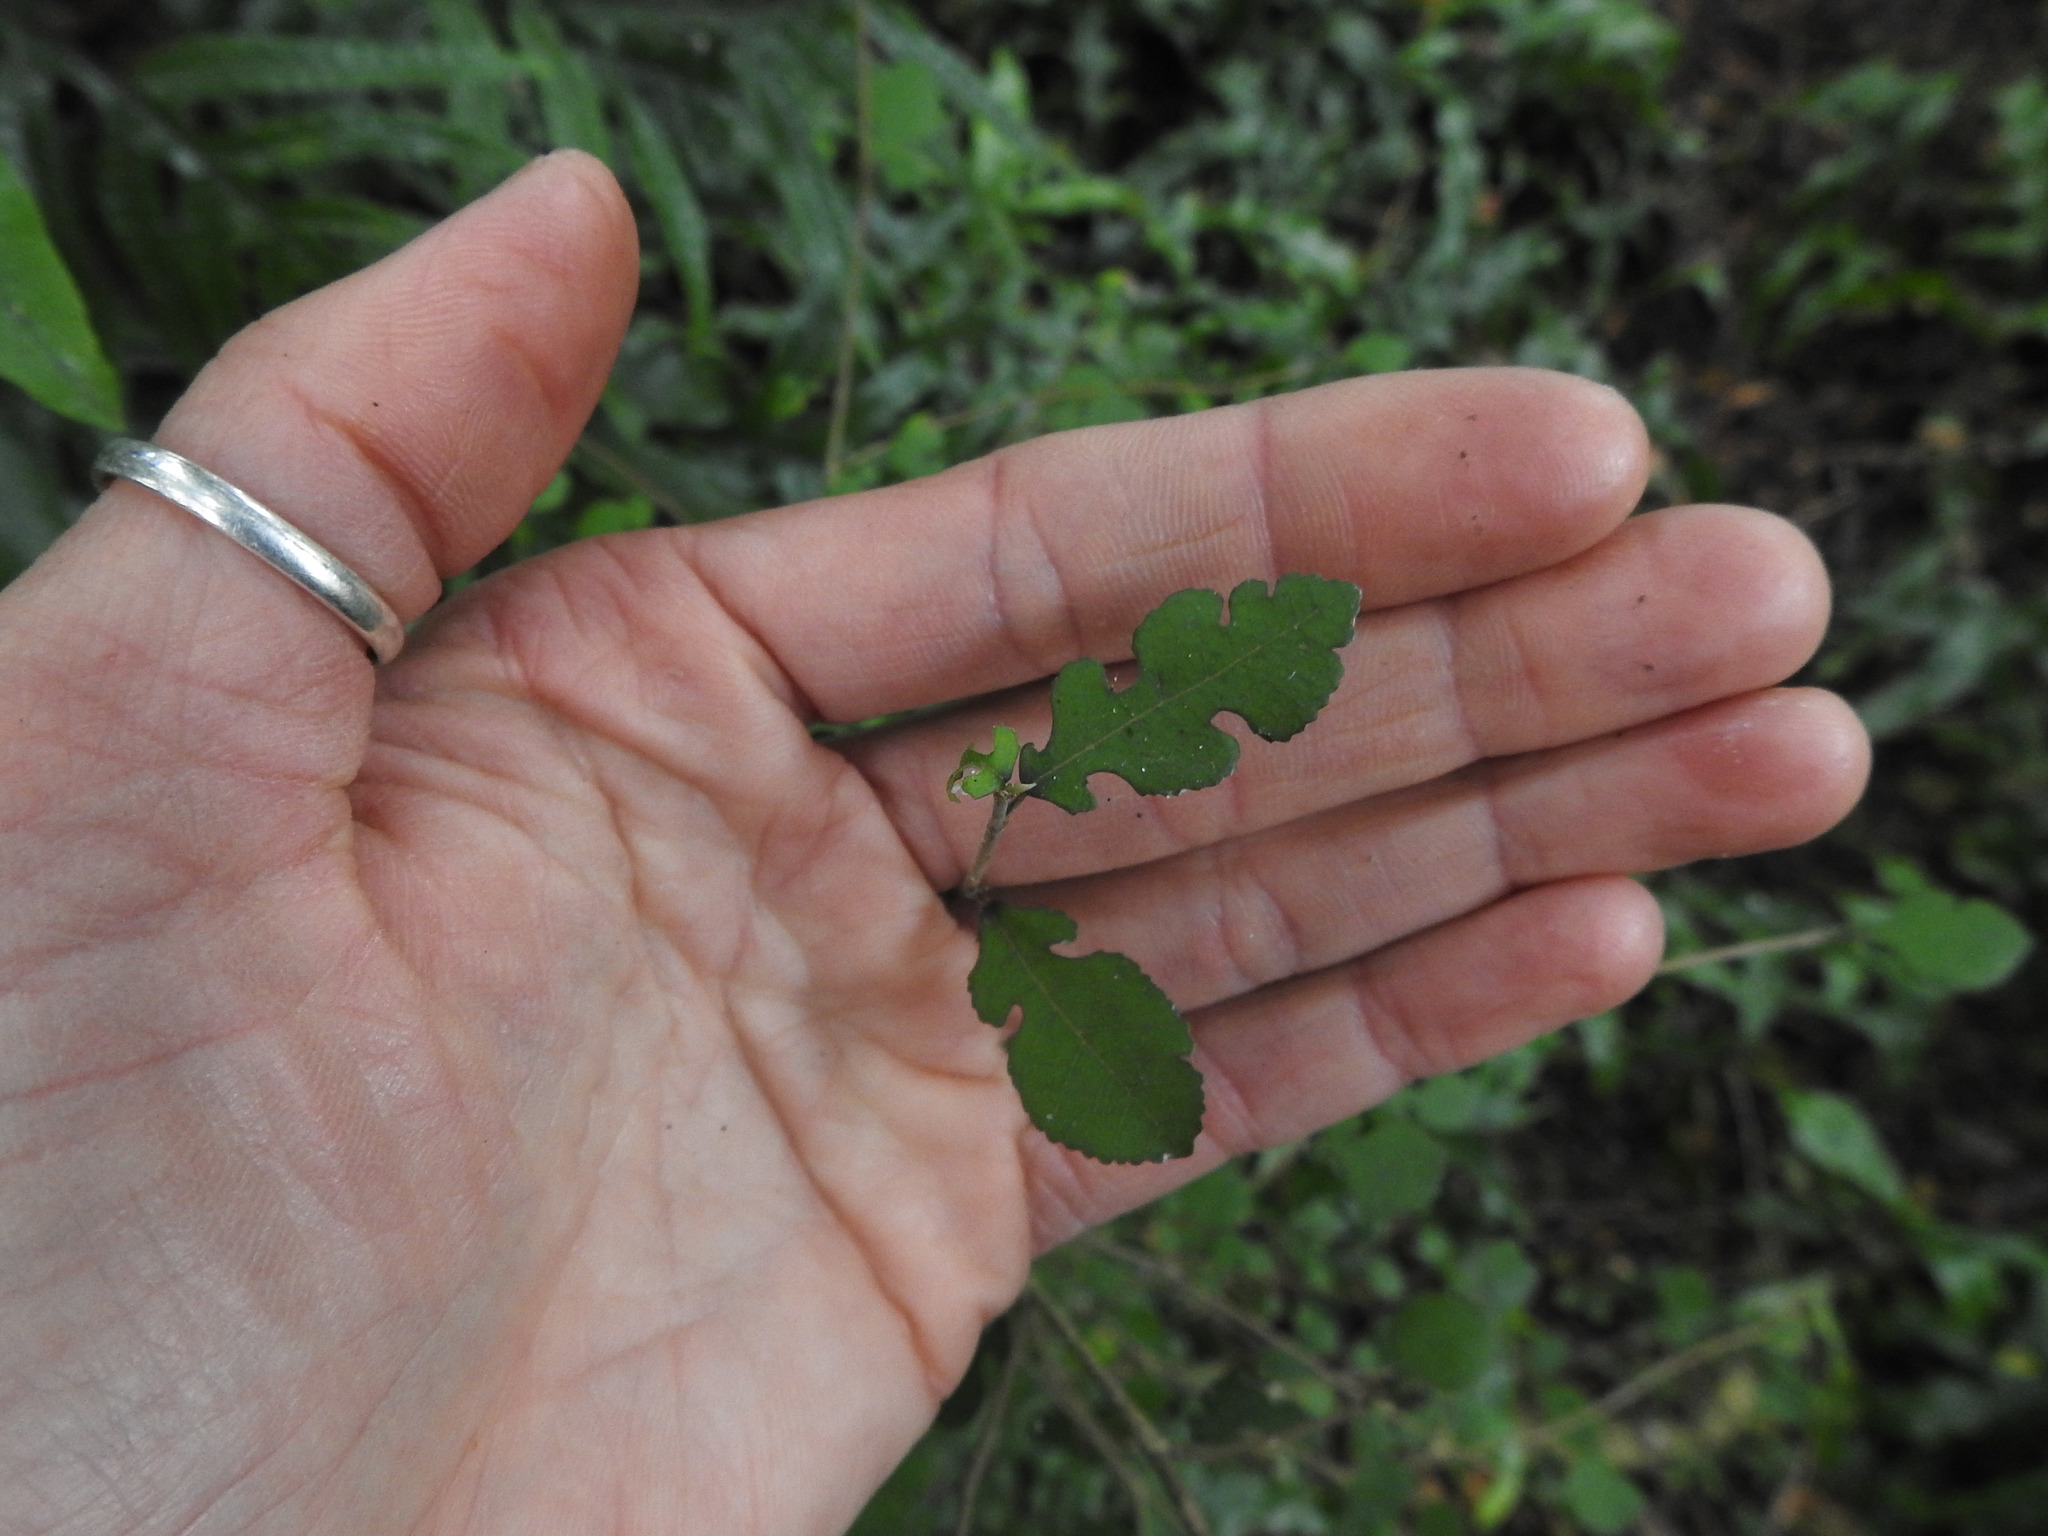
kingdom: Plantae
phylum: Tracheophyta
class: Magnoliopsida
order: Rosales
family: Moraceae
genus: Paratrophis
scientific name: Paratrophis microphylla
